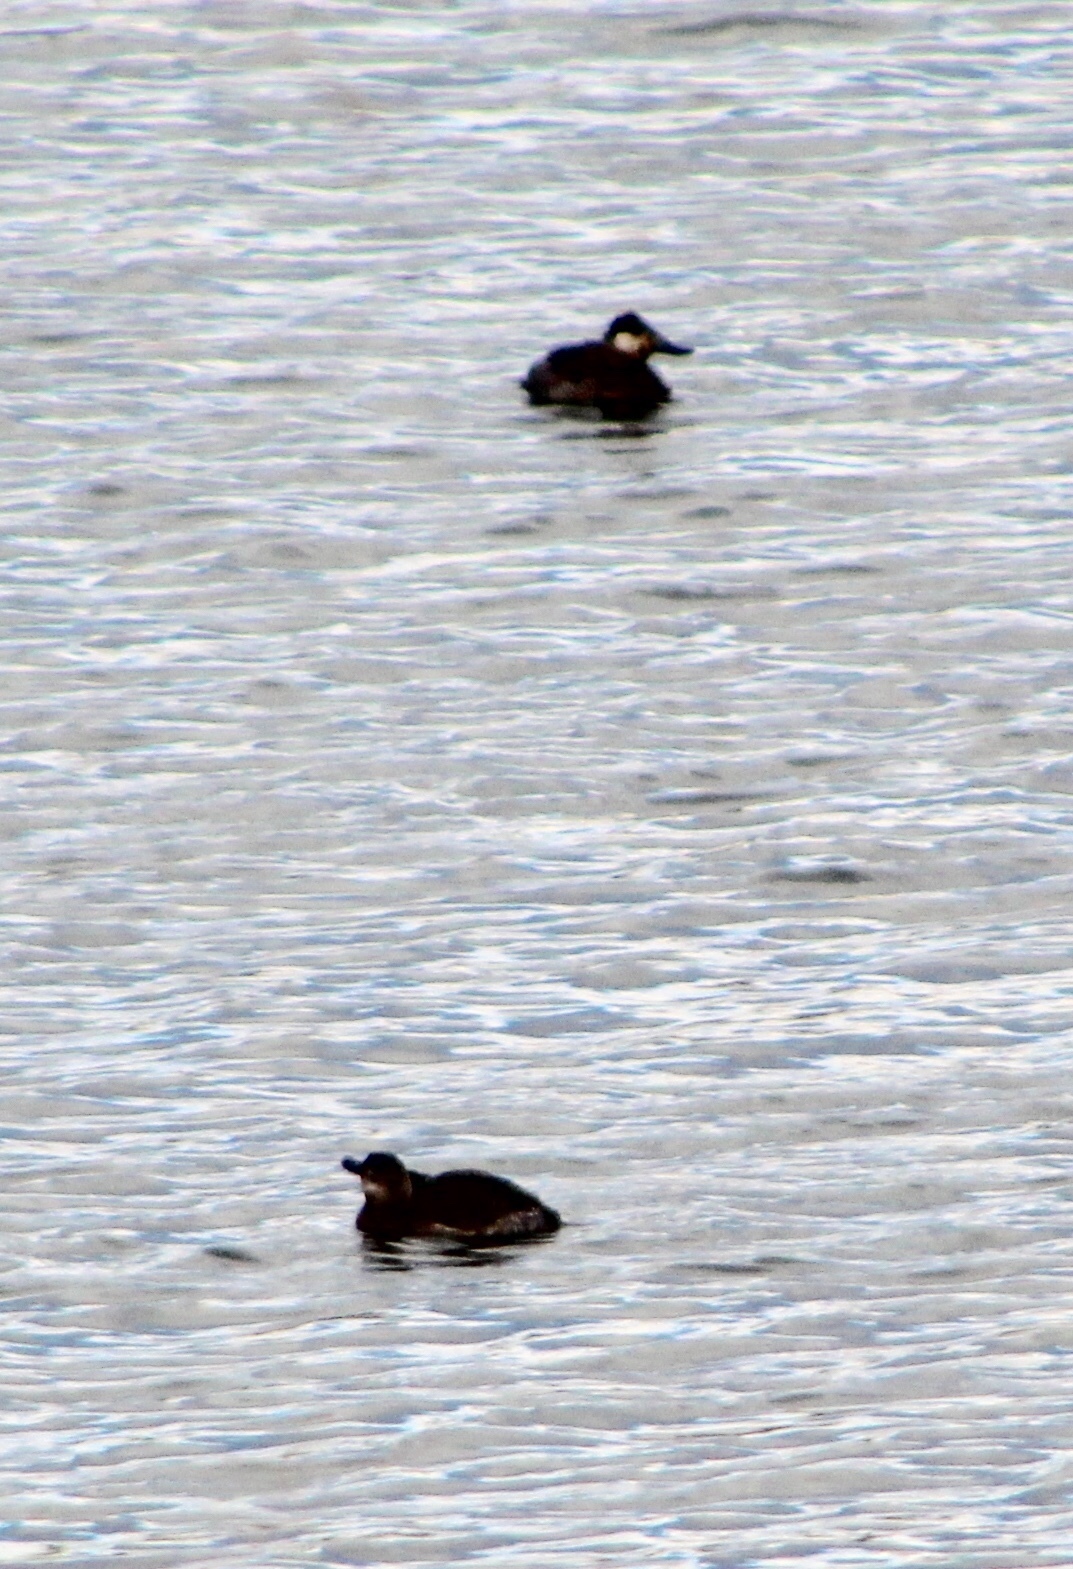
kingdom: Animalia
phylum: Chordata
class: Aves
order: Anseriformes
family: Anatidae
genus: Oxyura
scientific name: Oxyura jamaicensis
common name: Ruddy duck
